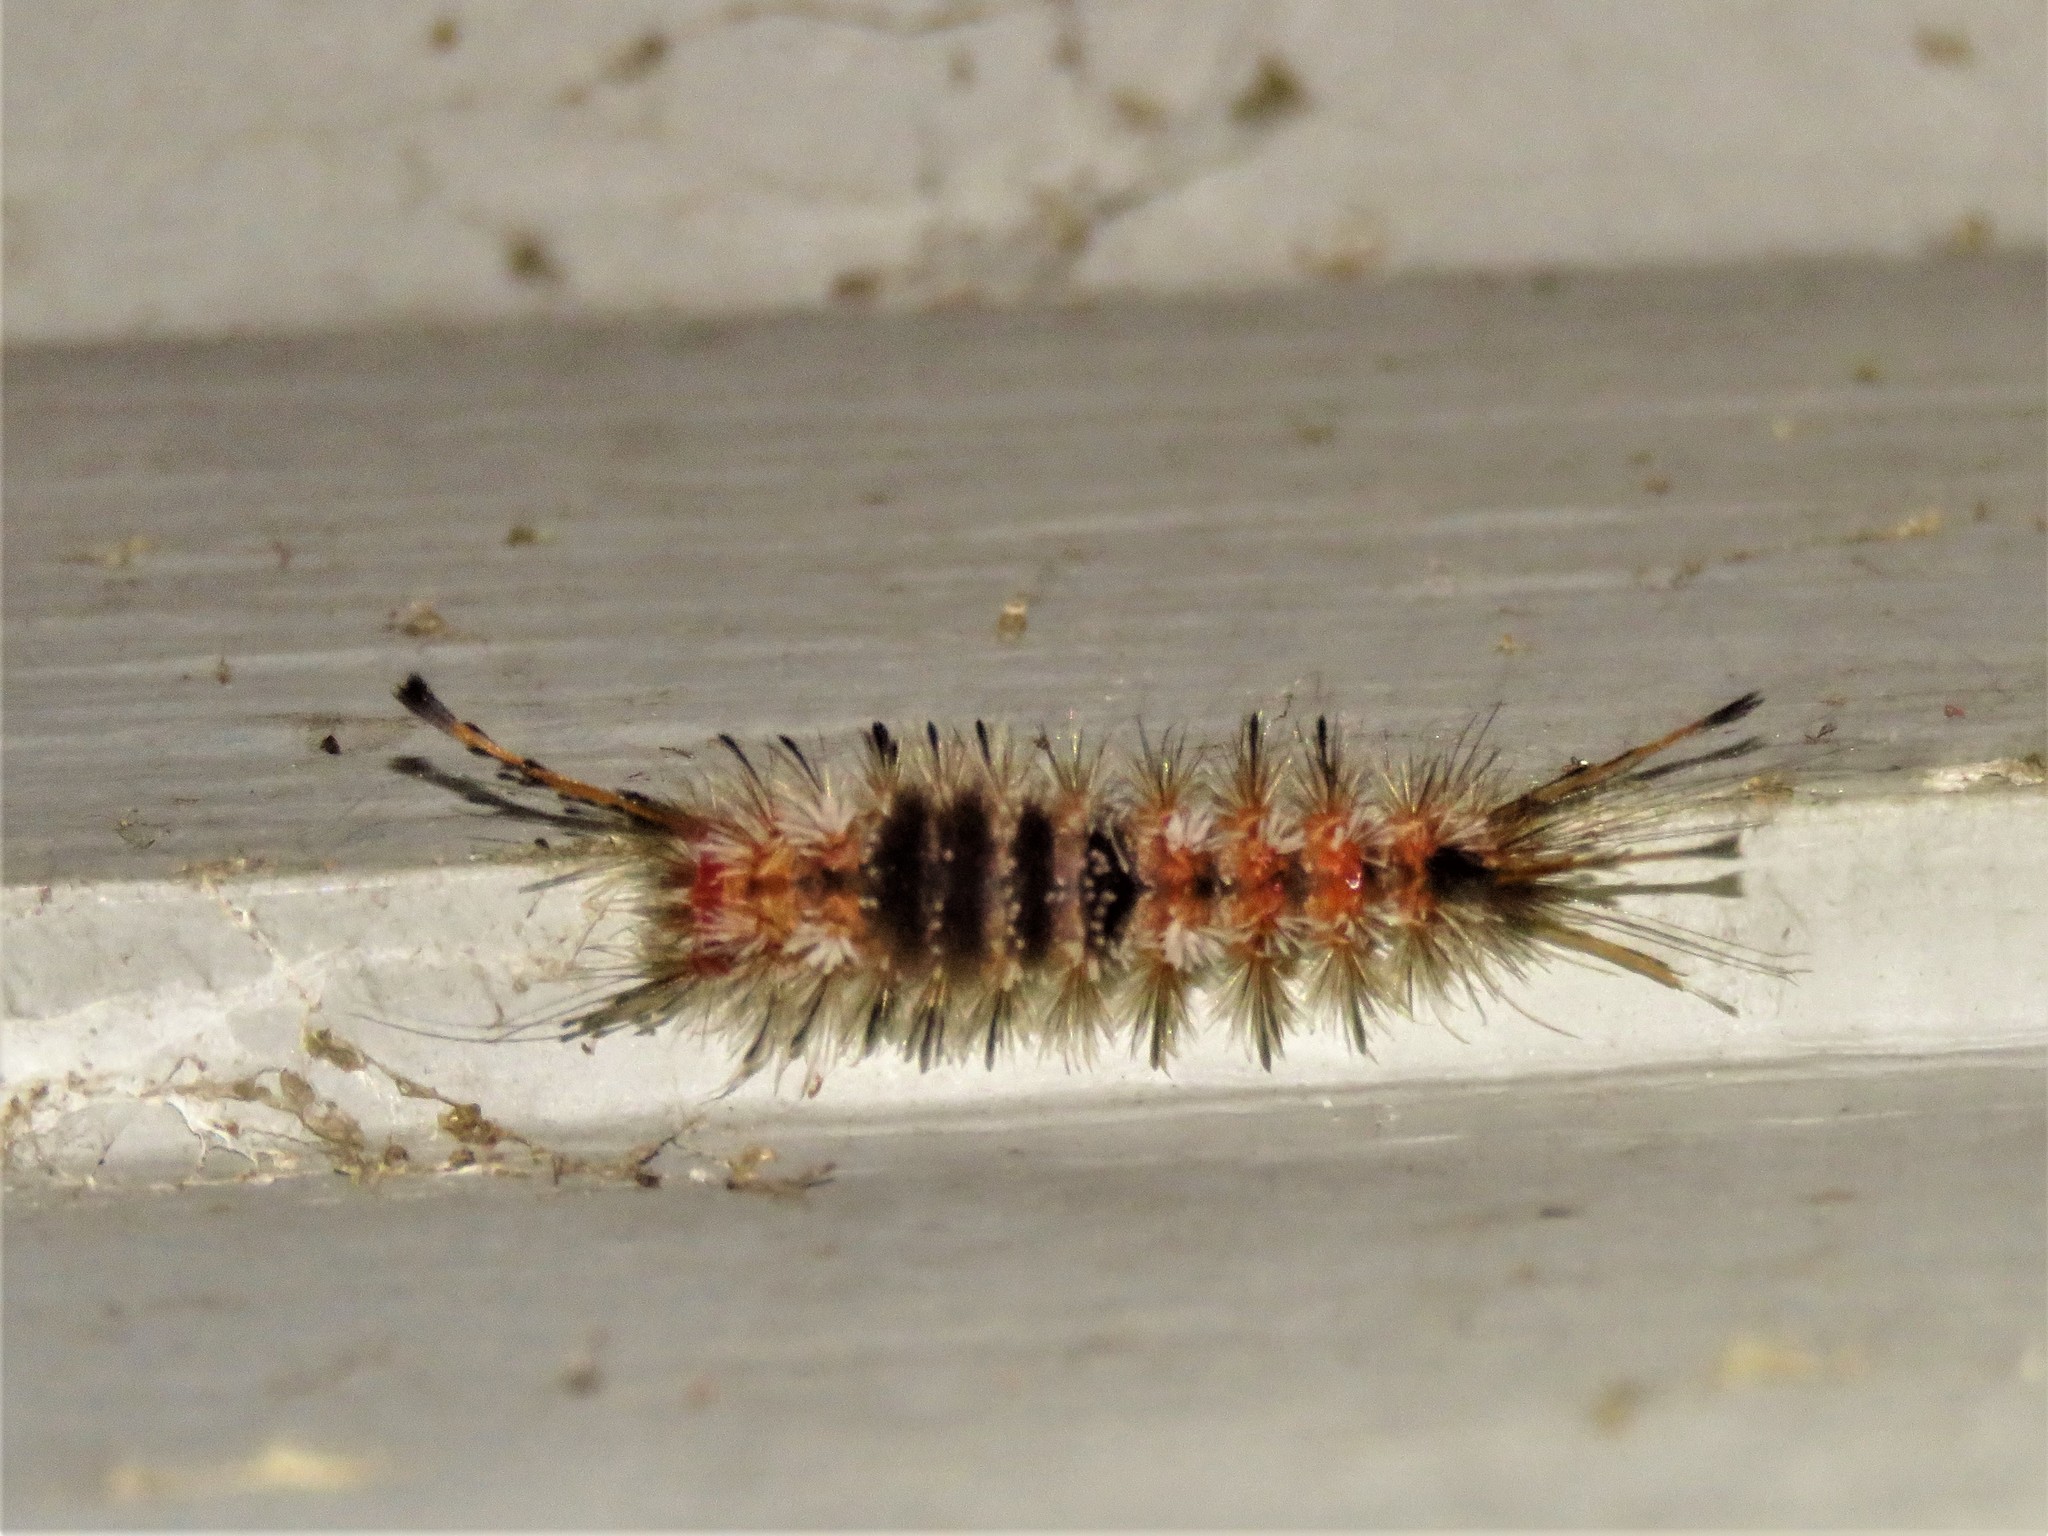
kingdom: Animalia
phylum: Arthropoda
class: Insecta
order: Lepidoptera
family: Erebidae
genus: Dasychira
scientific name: Dasychira manto
